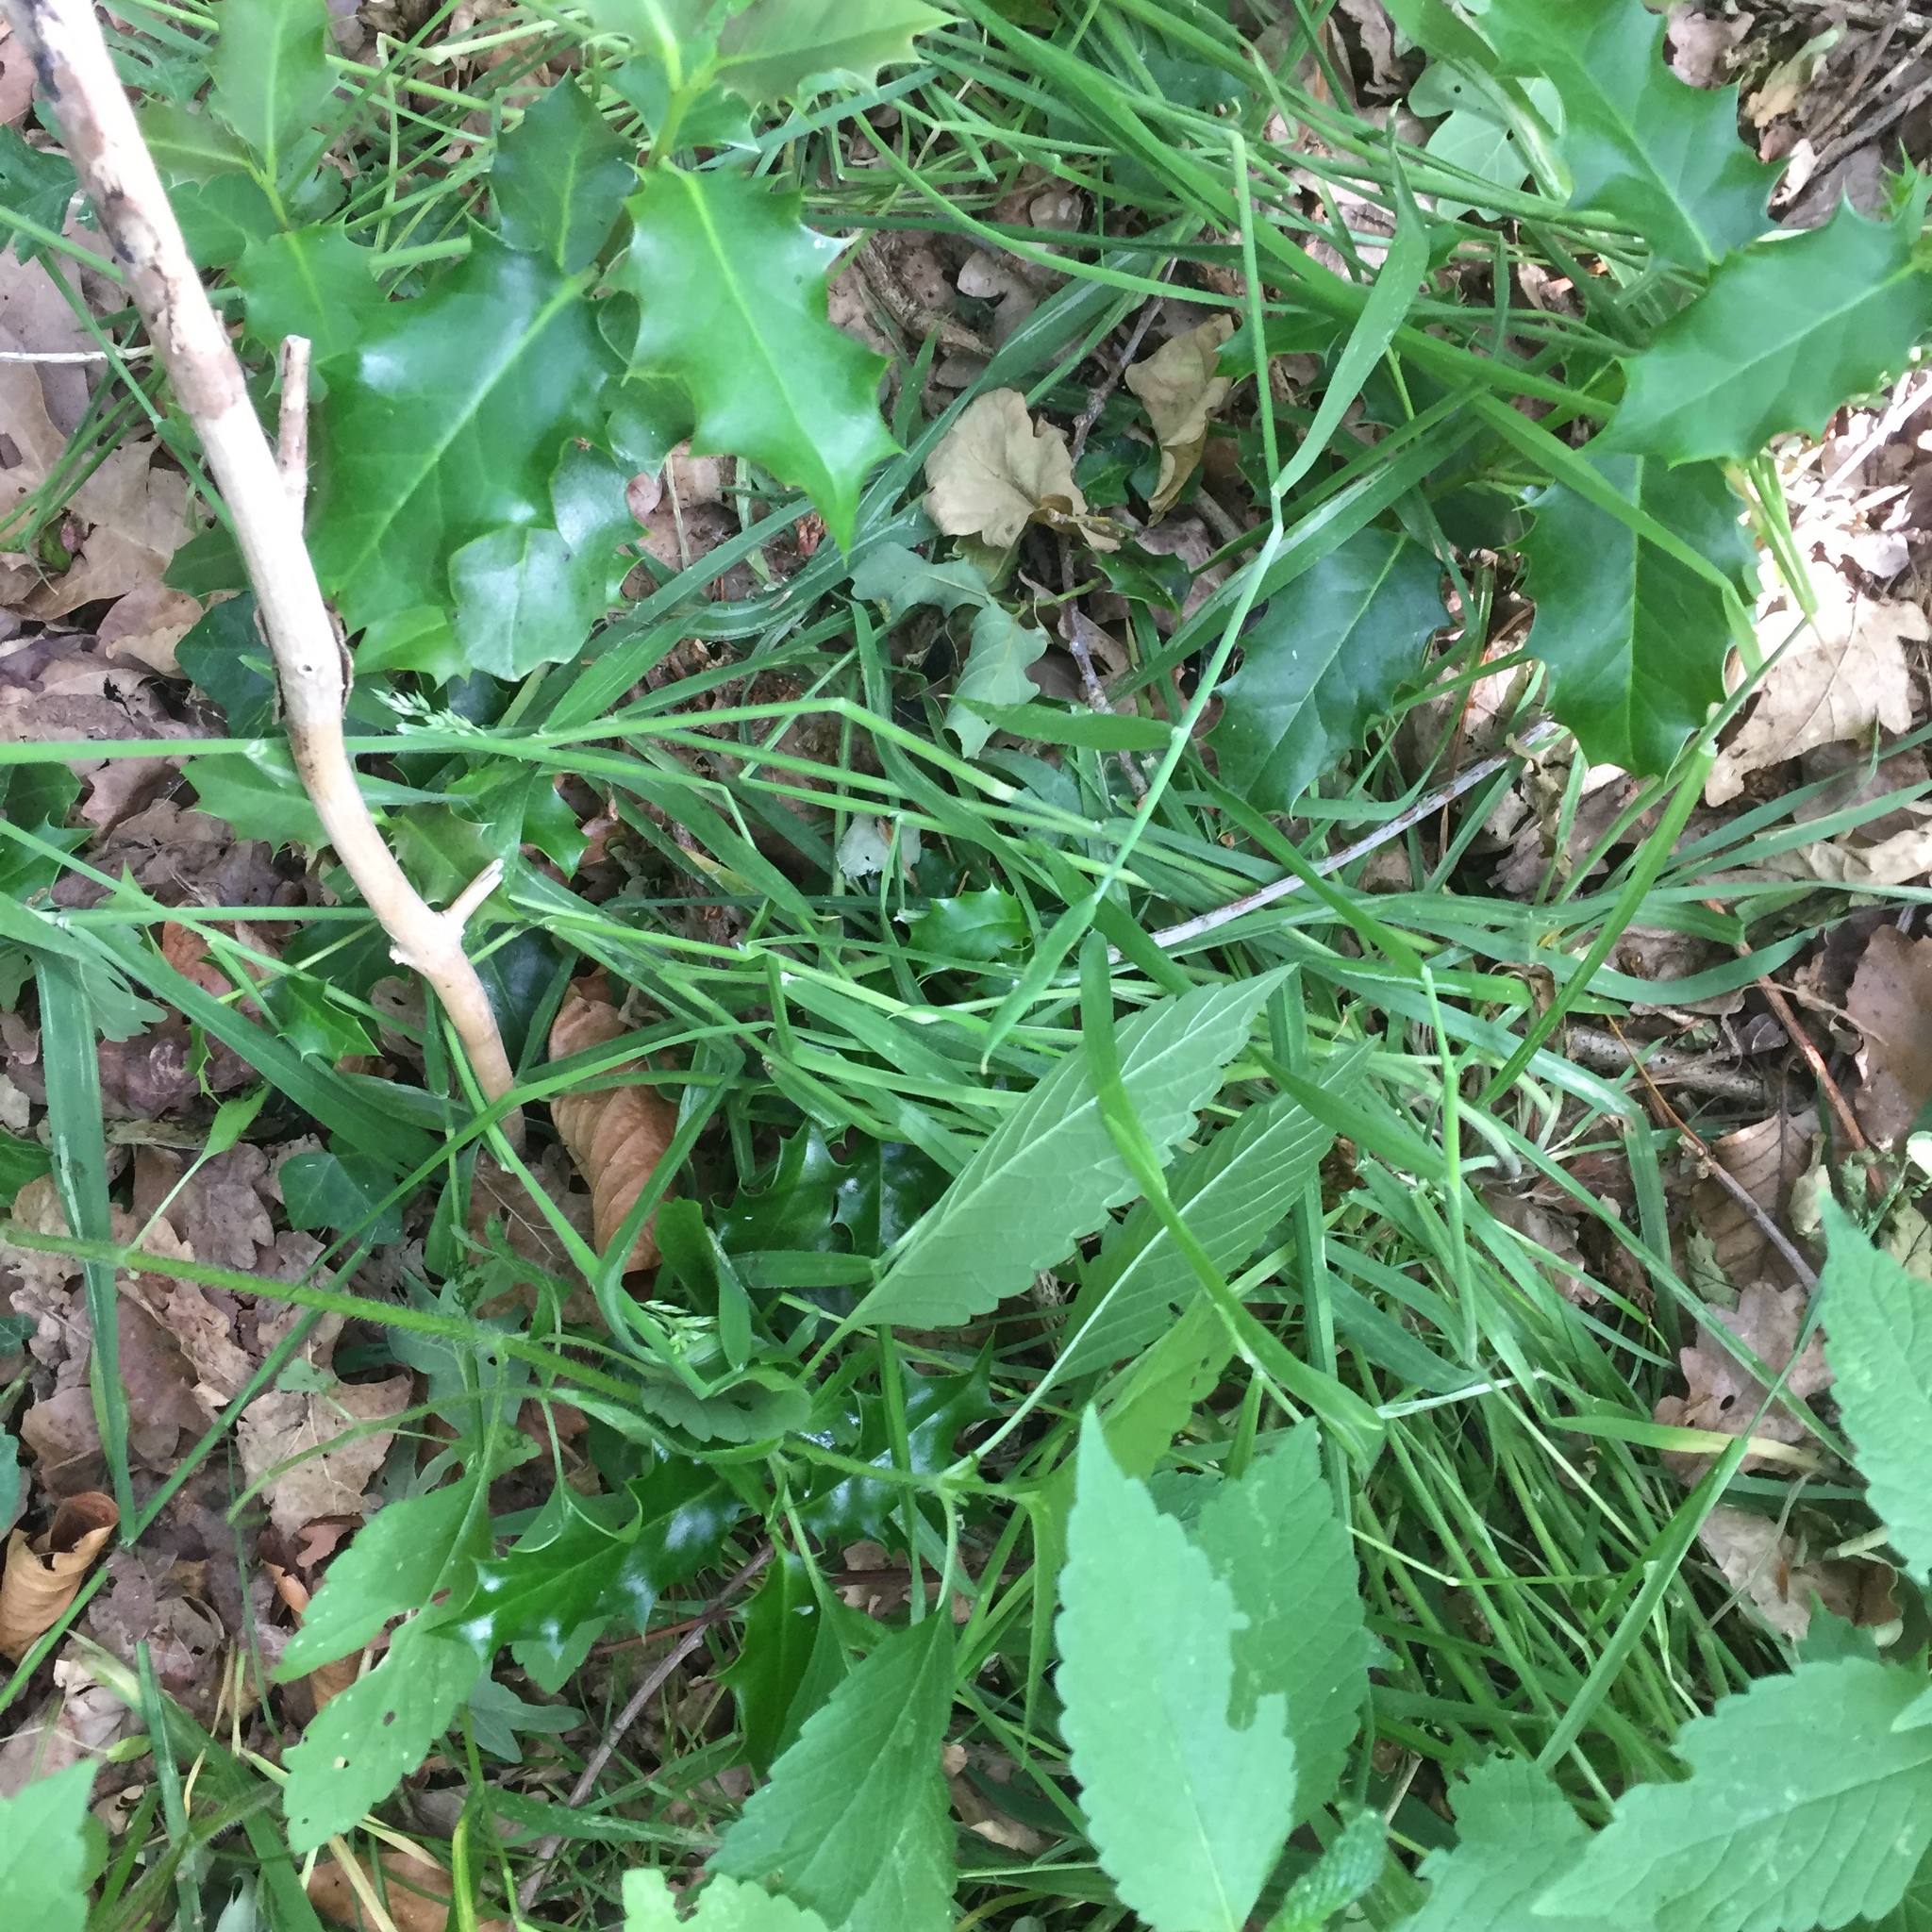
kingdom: Plantae
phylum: Tracheophyta
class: Magnoliopsida
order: Aquifoliales
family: Aquifoliaceae
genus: Ilex
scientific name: Ilex aquifolium
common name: English holly
